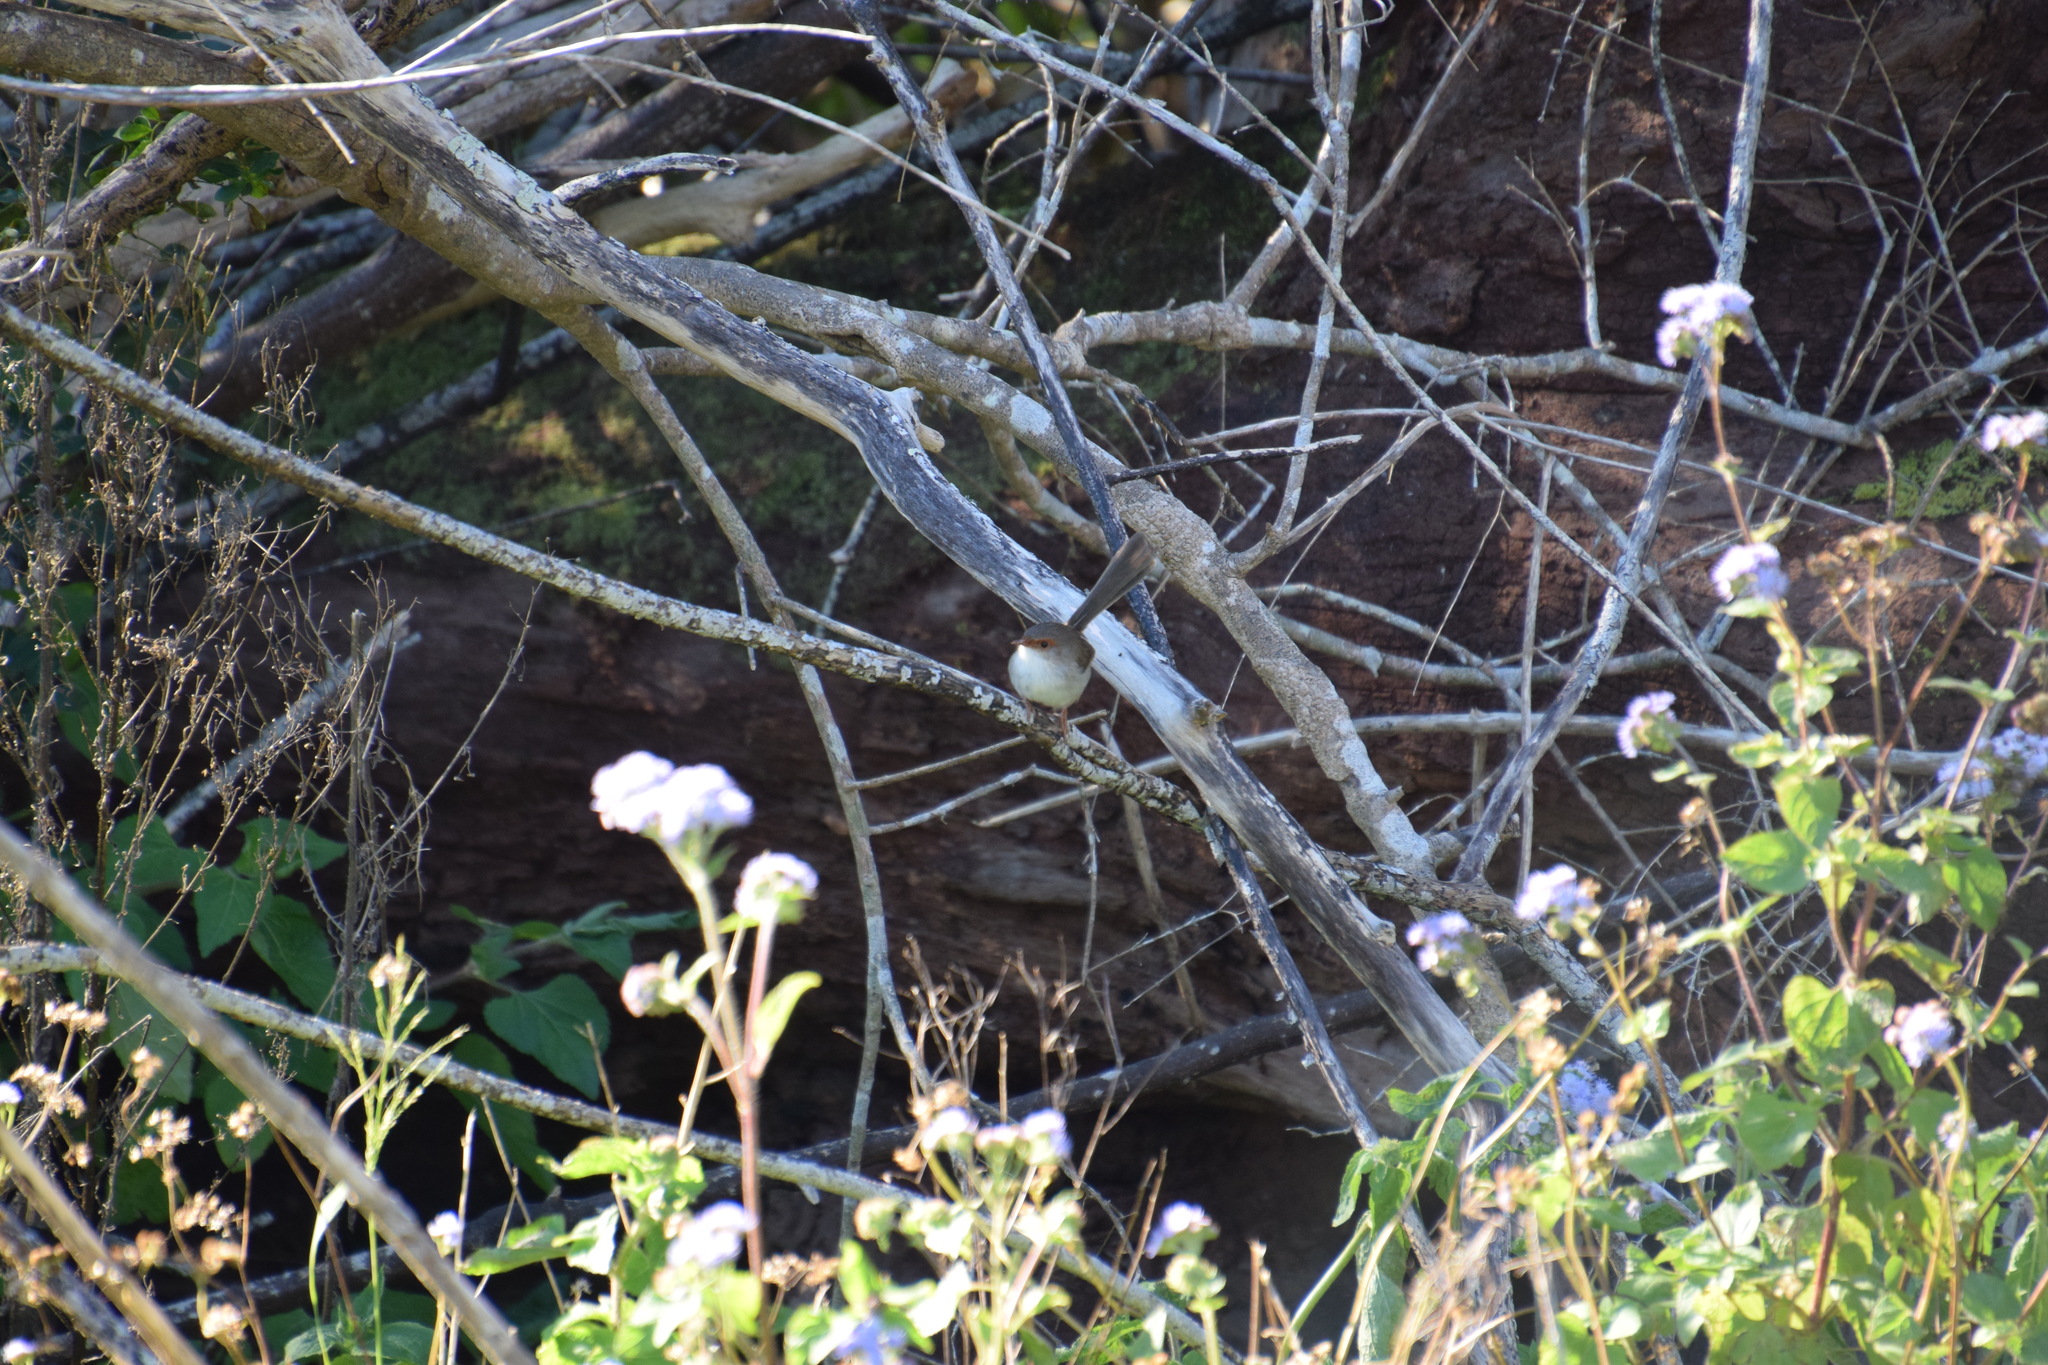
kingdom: Animalia
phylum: Chordata
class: Aves
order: Passeriformes
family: Maluridae
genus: Malurus
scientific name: Malurus cyaneus
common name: Superb fairywren
